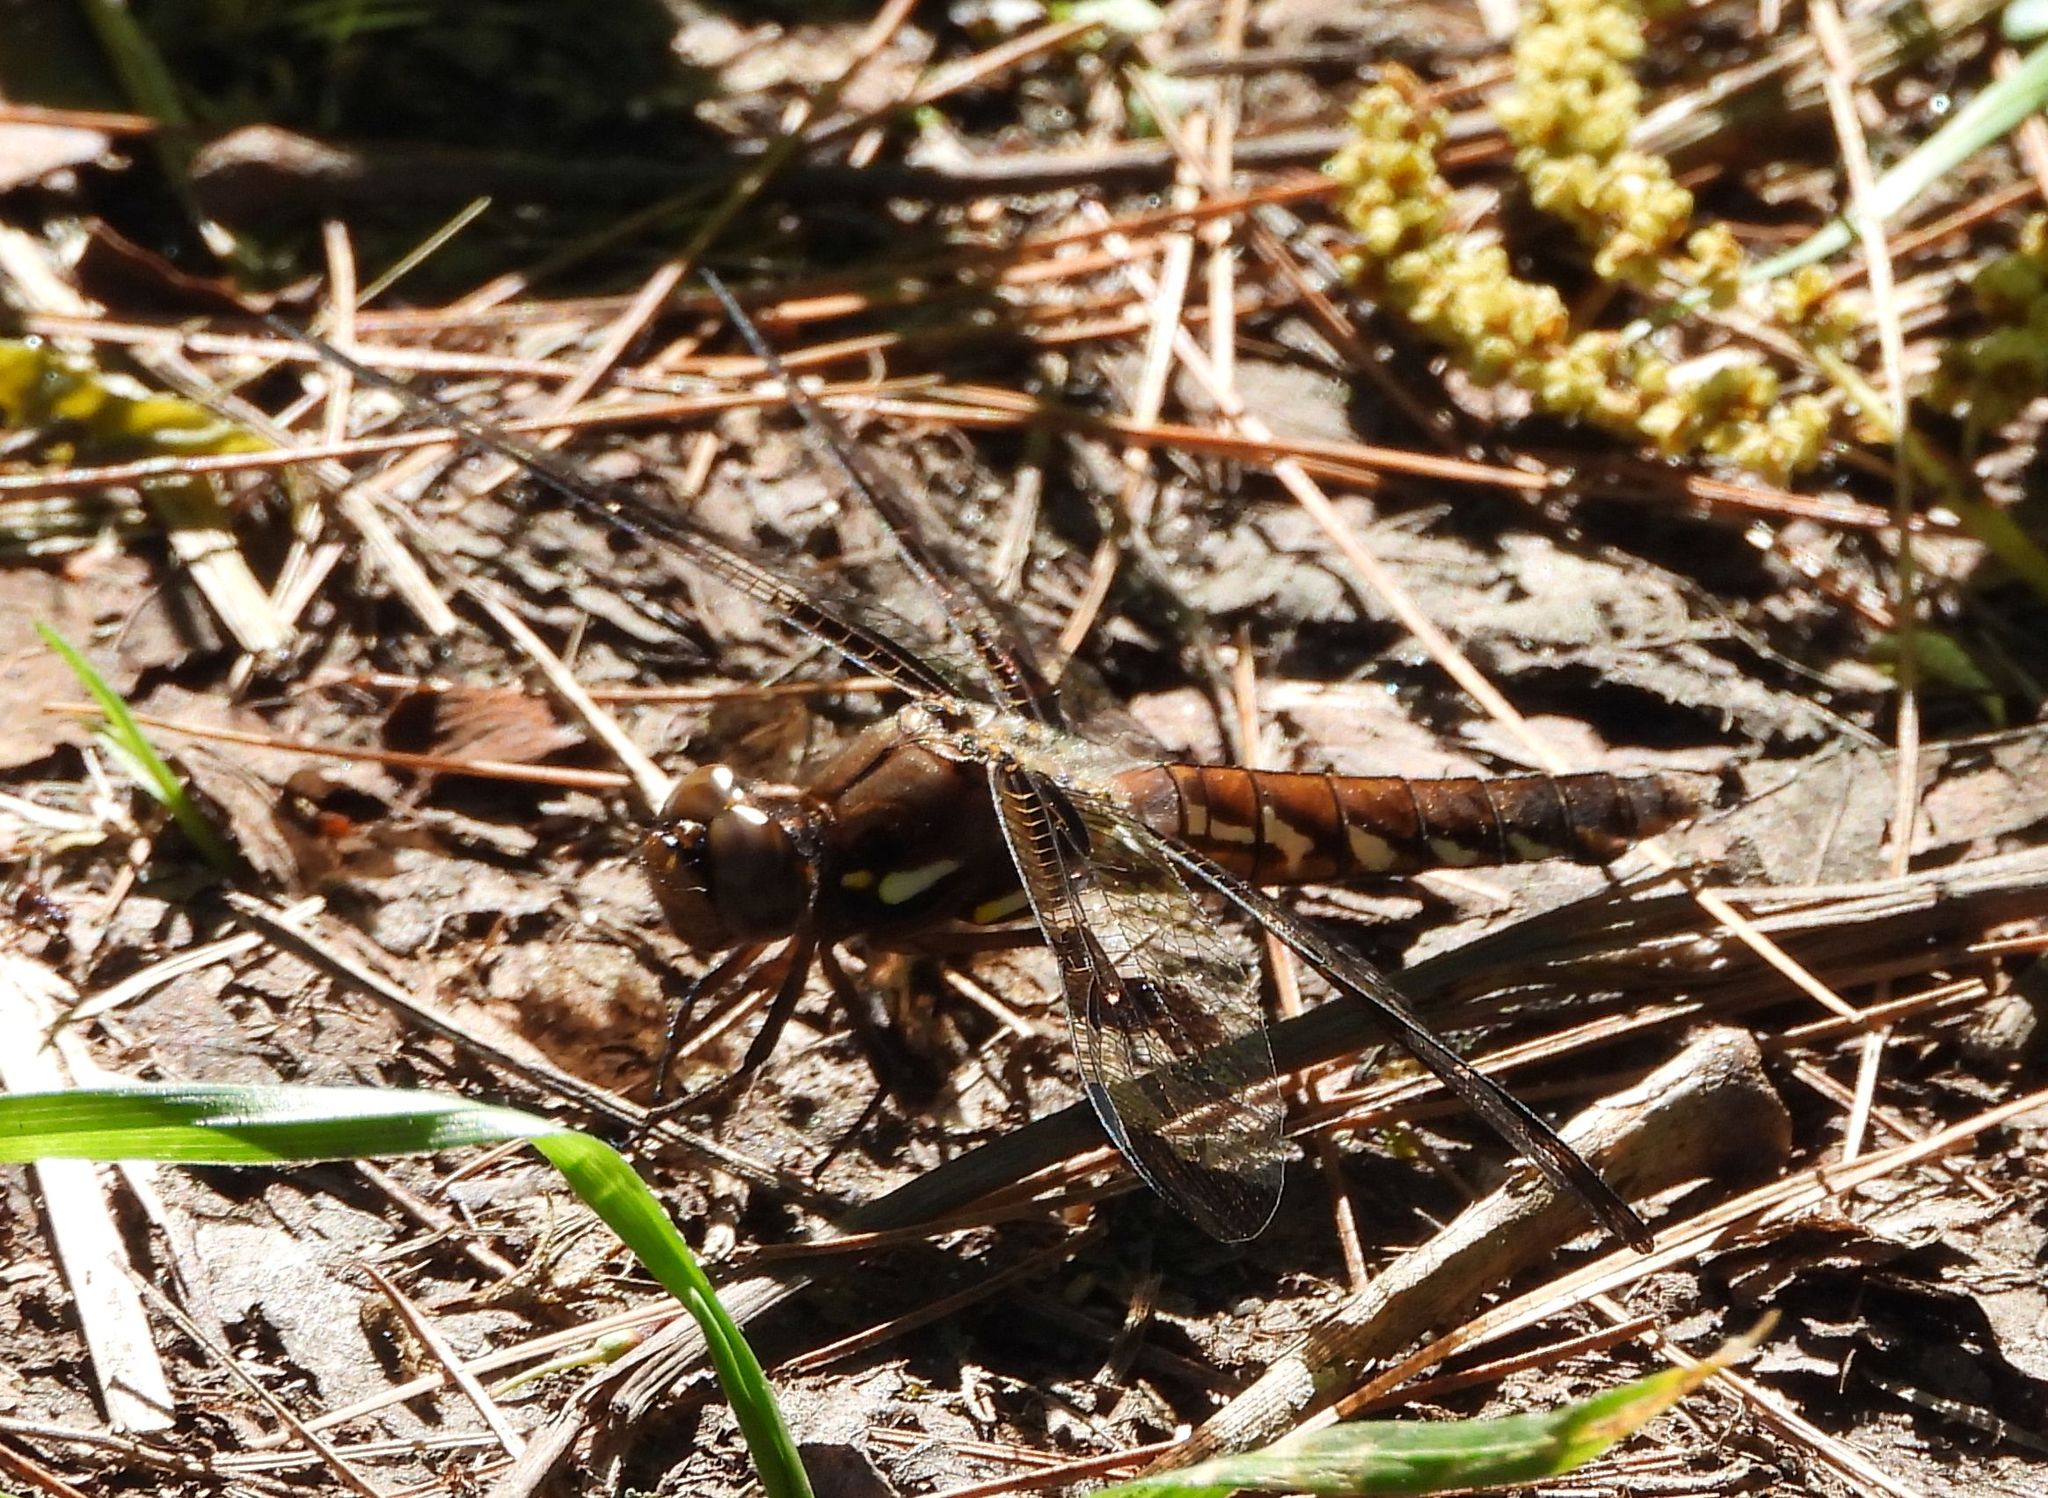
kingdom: Animalia
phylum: Arthropoda
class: Insecta
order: Odonata
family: Libellulidae
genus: Plathemis
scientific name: Plathemis lydia
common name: Common whitetail
